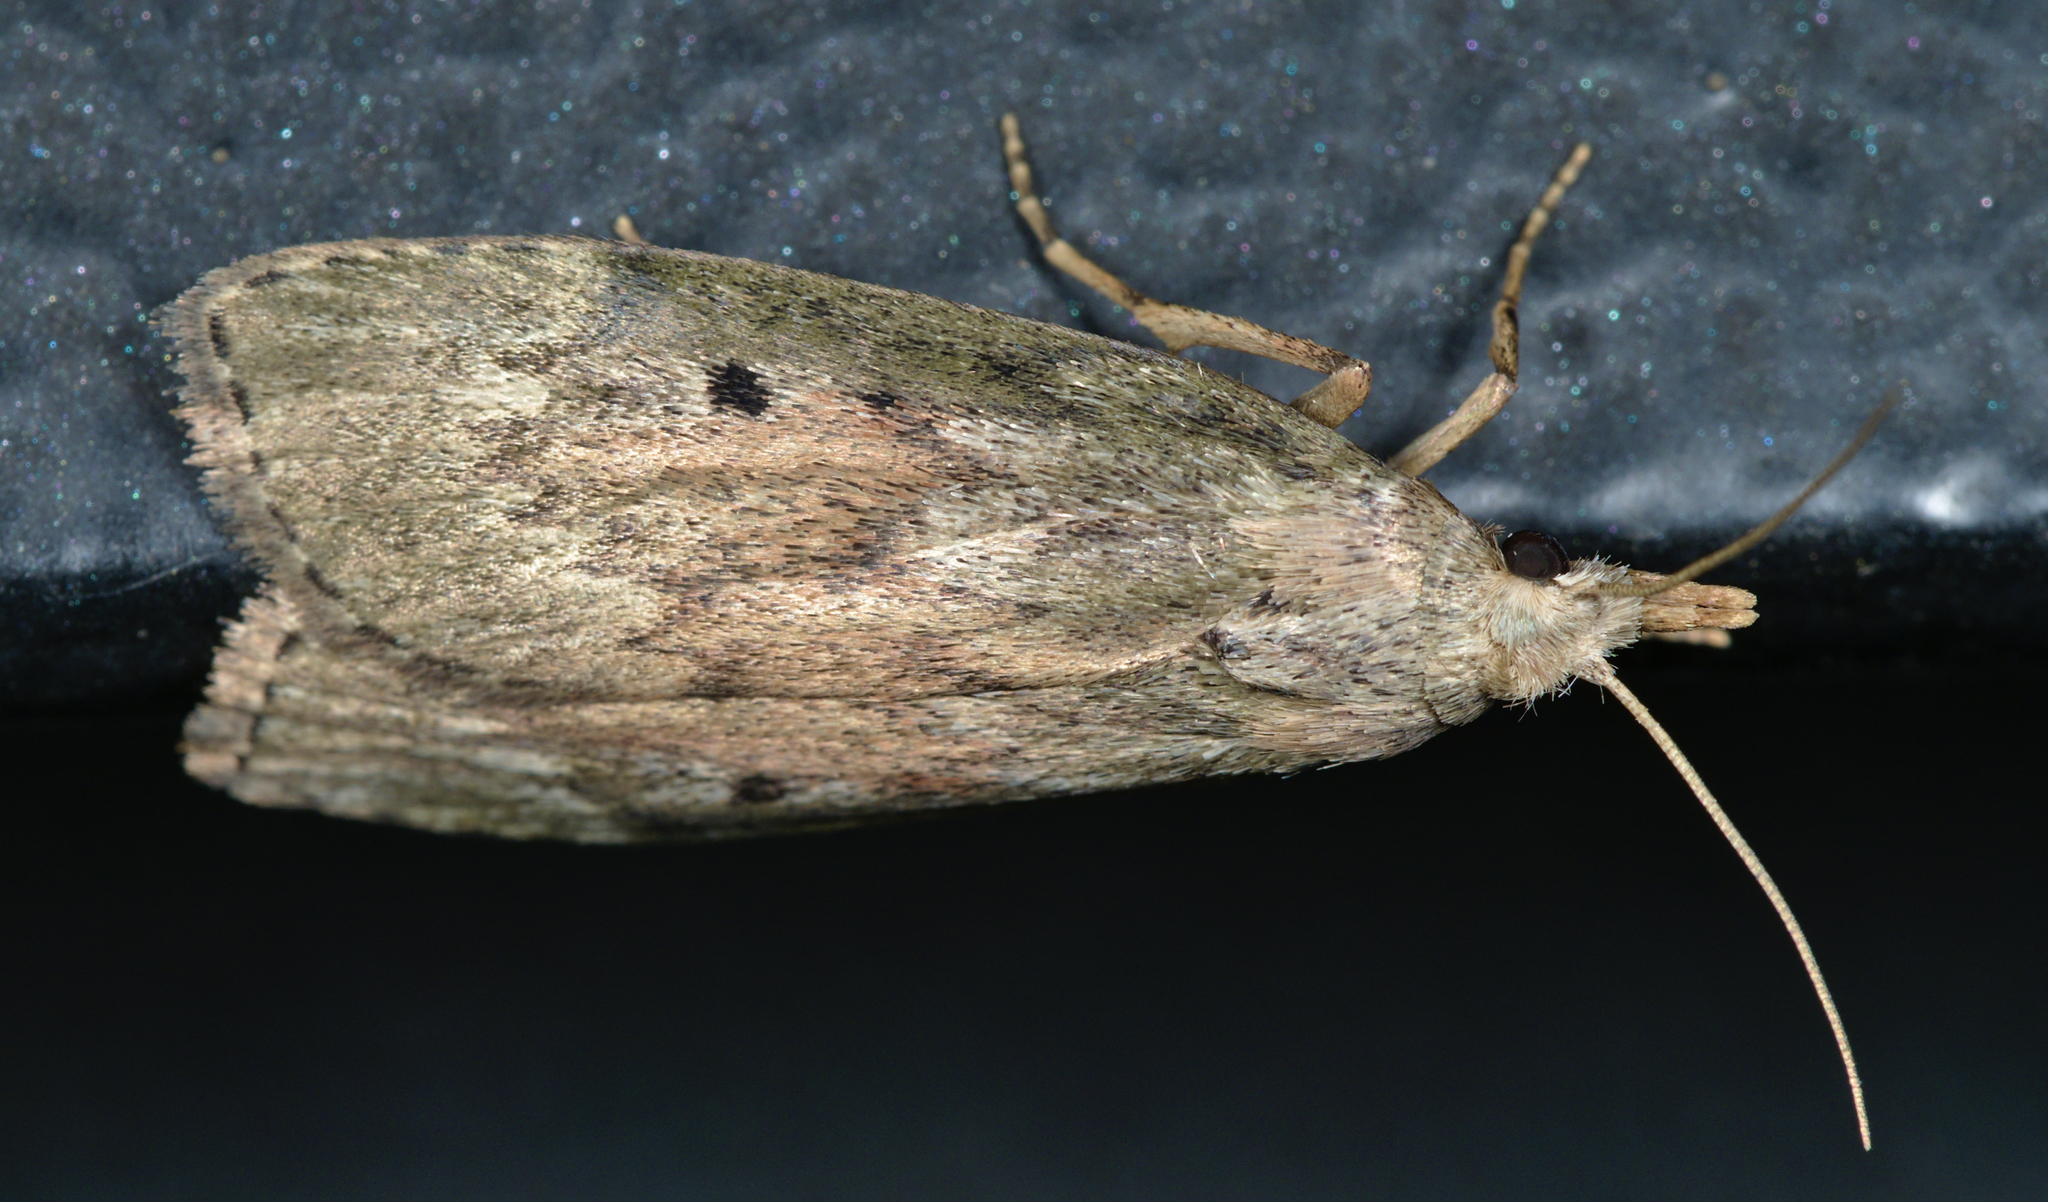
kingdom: Animalia
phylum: Arthropoda
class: Insecta
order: Lepidoptera
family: Pyralidae
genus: Aphomia
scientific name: Aphomia sociella
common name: Bee moth
